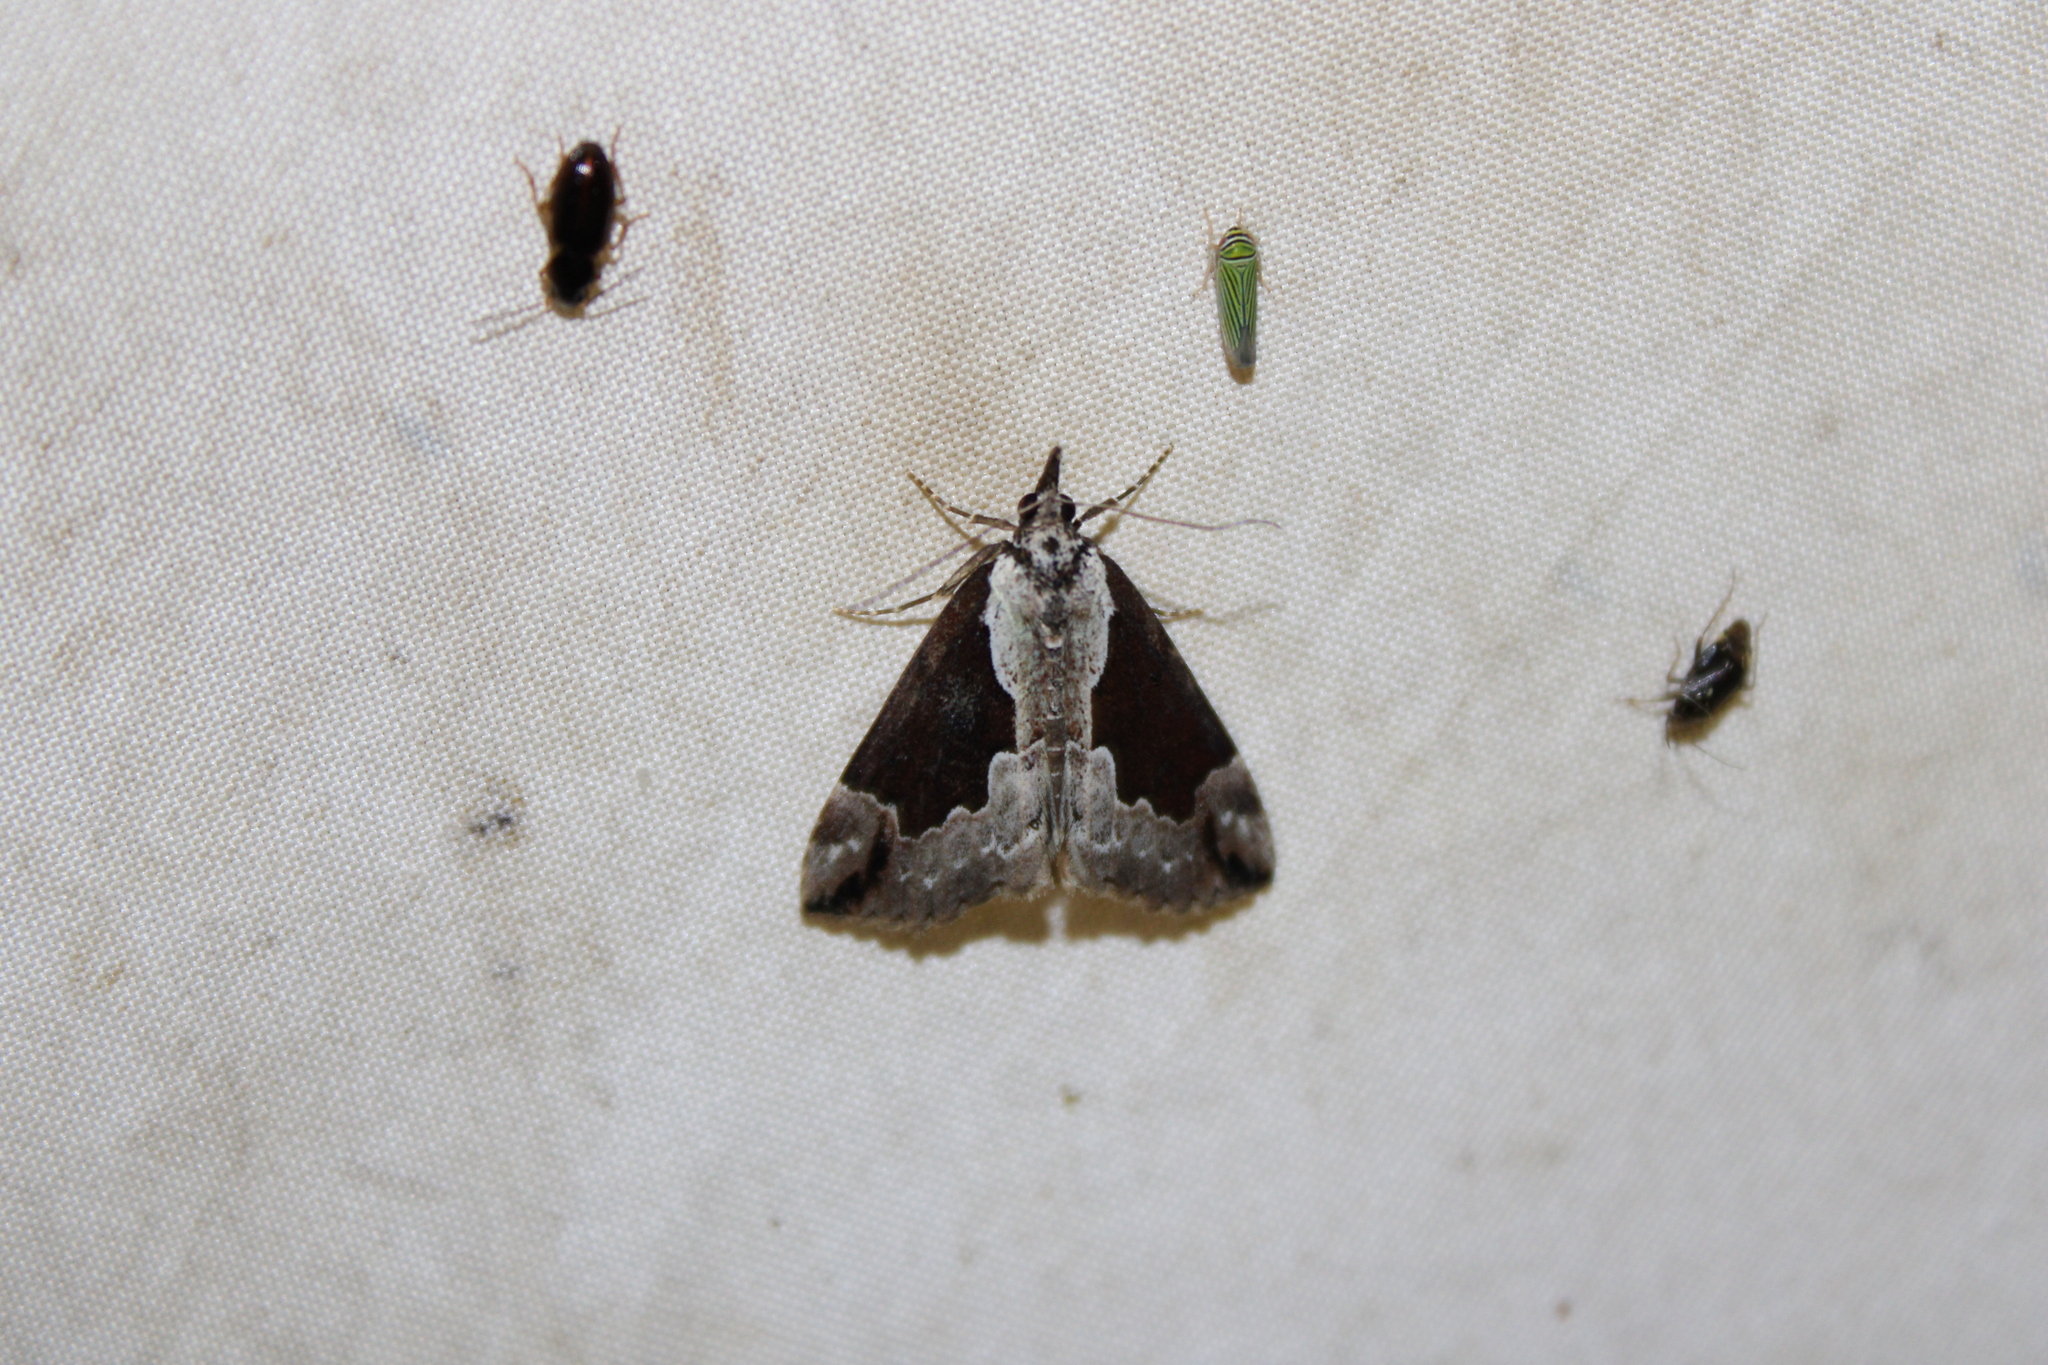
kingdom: Animalia
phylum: Arthropoda
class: Insecta
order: Lepidoptera
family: Erebidae
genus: Hypena
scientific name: Hypena baltimoralis
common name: Baltimore snout
